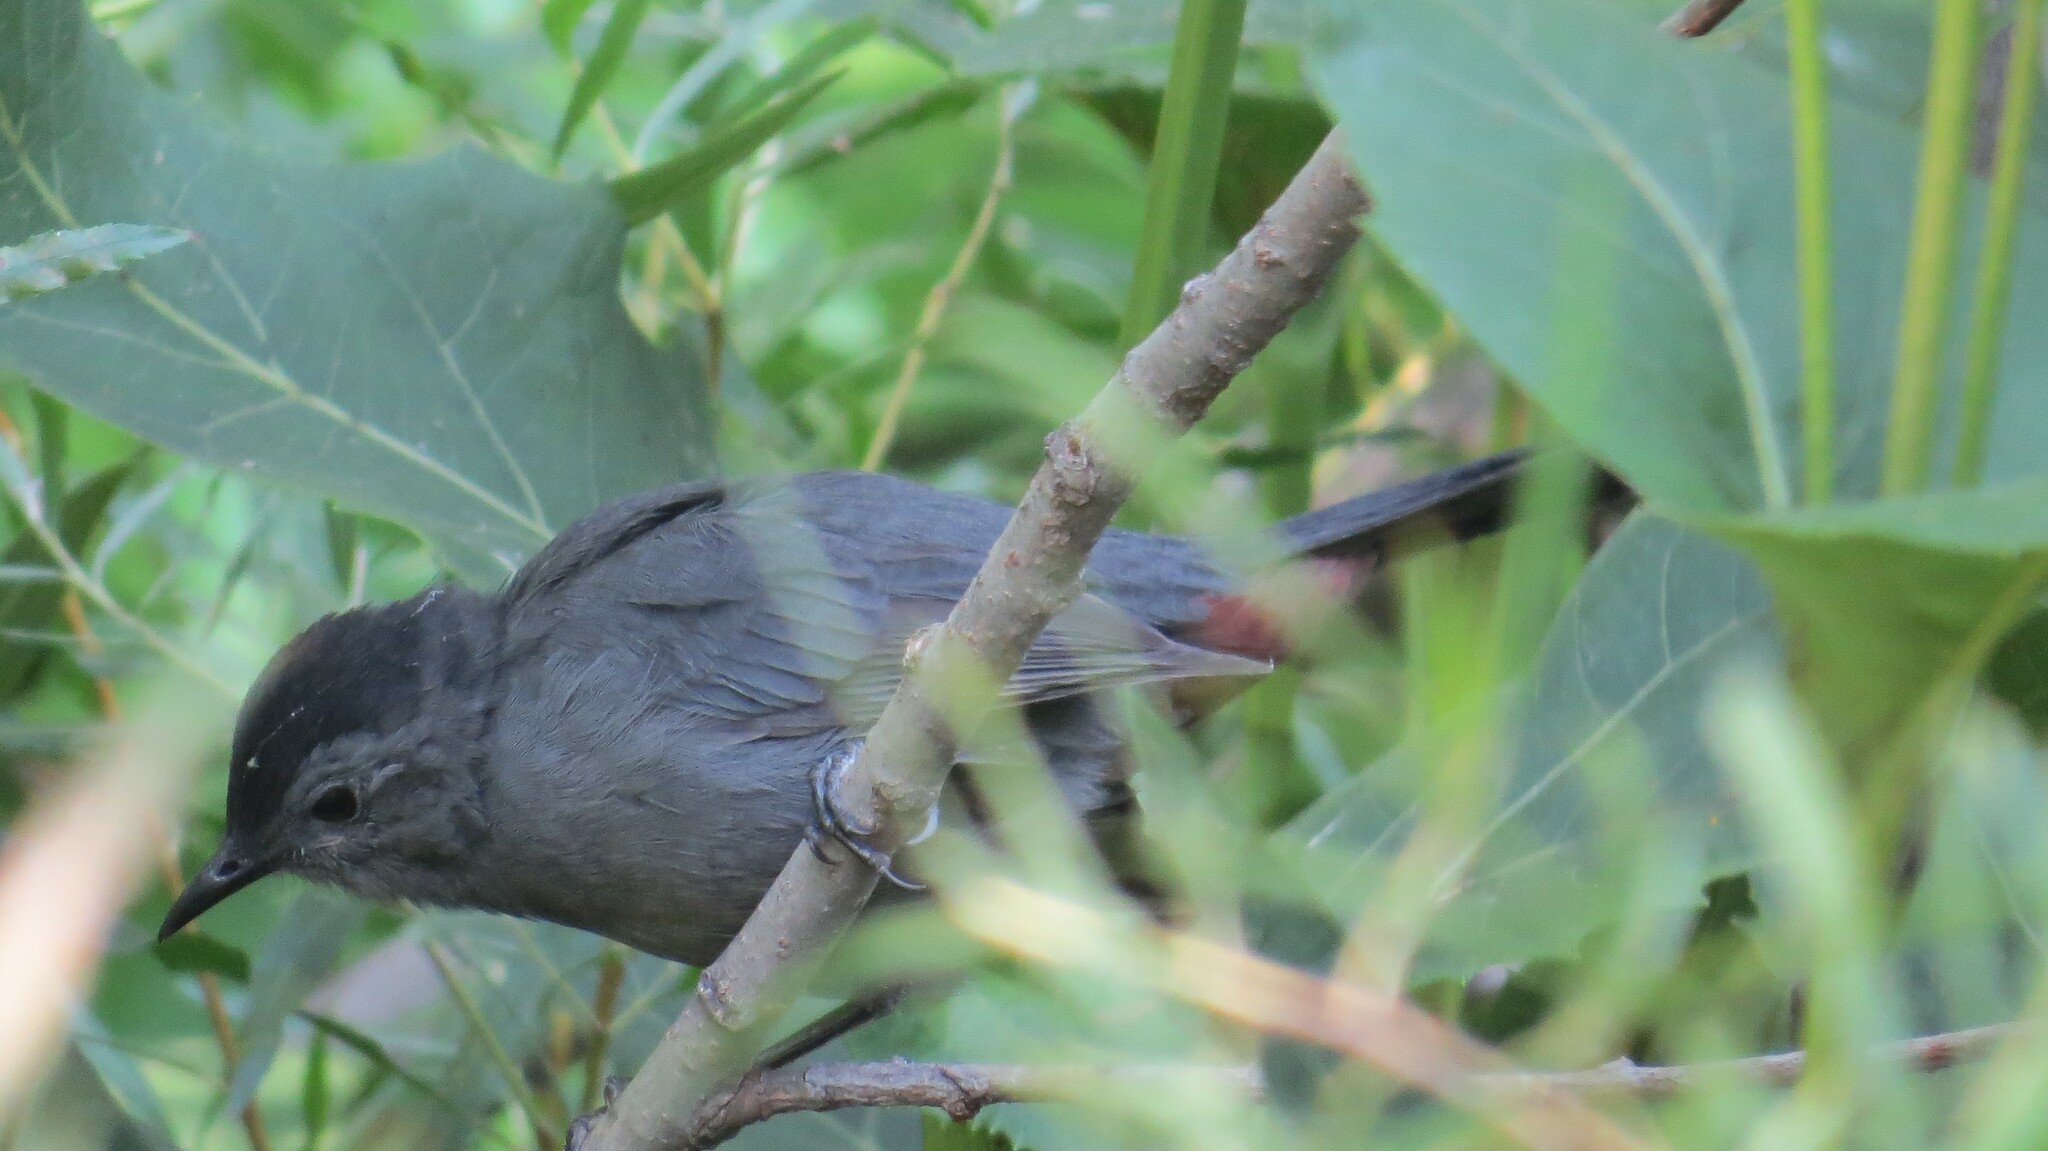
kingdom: Animalia
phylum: Chordata
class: Aves
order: Passeriformes
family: Mimidae
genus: Dumetella
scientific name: Dumetella carolinensis
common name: Gray catbird
